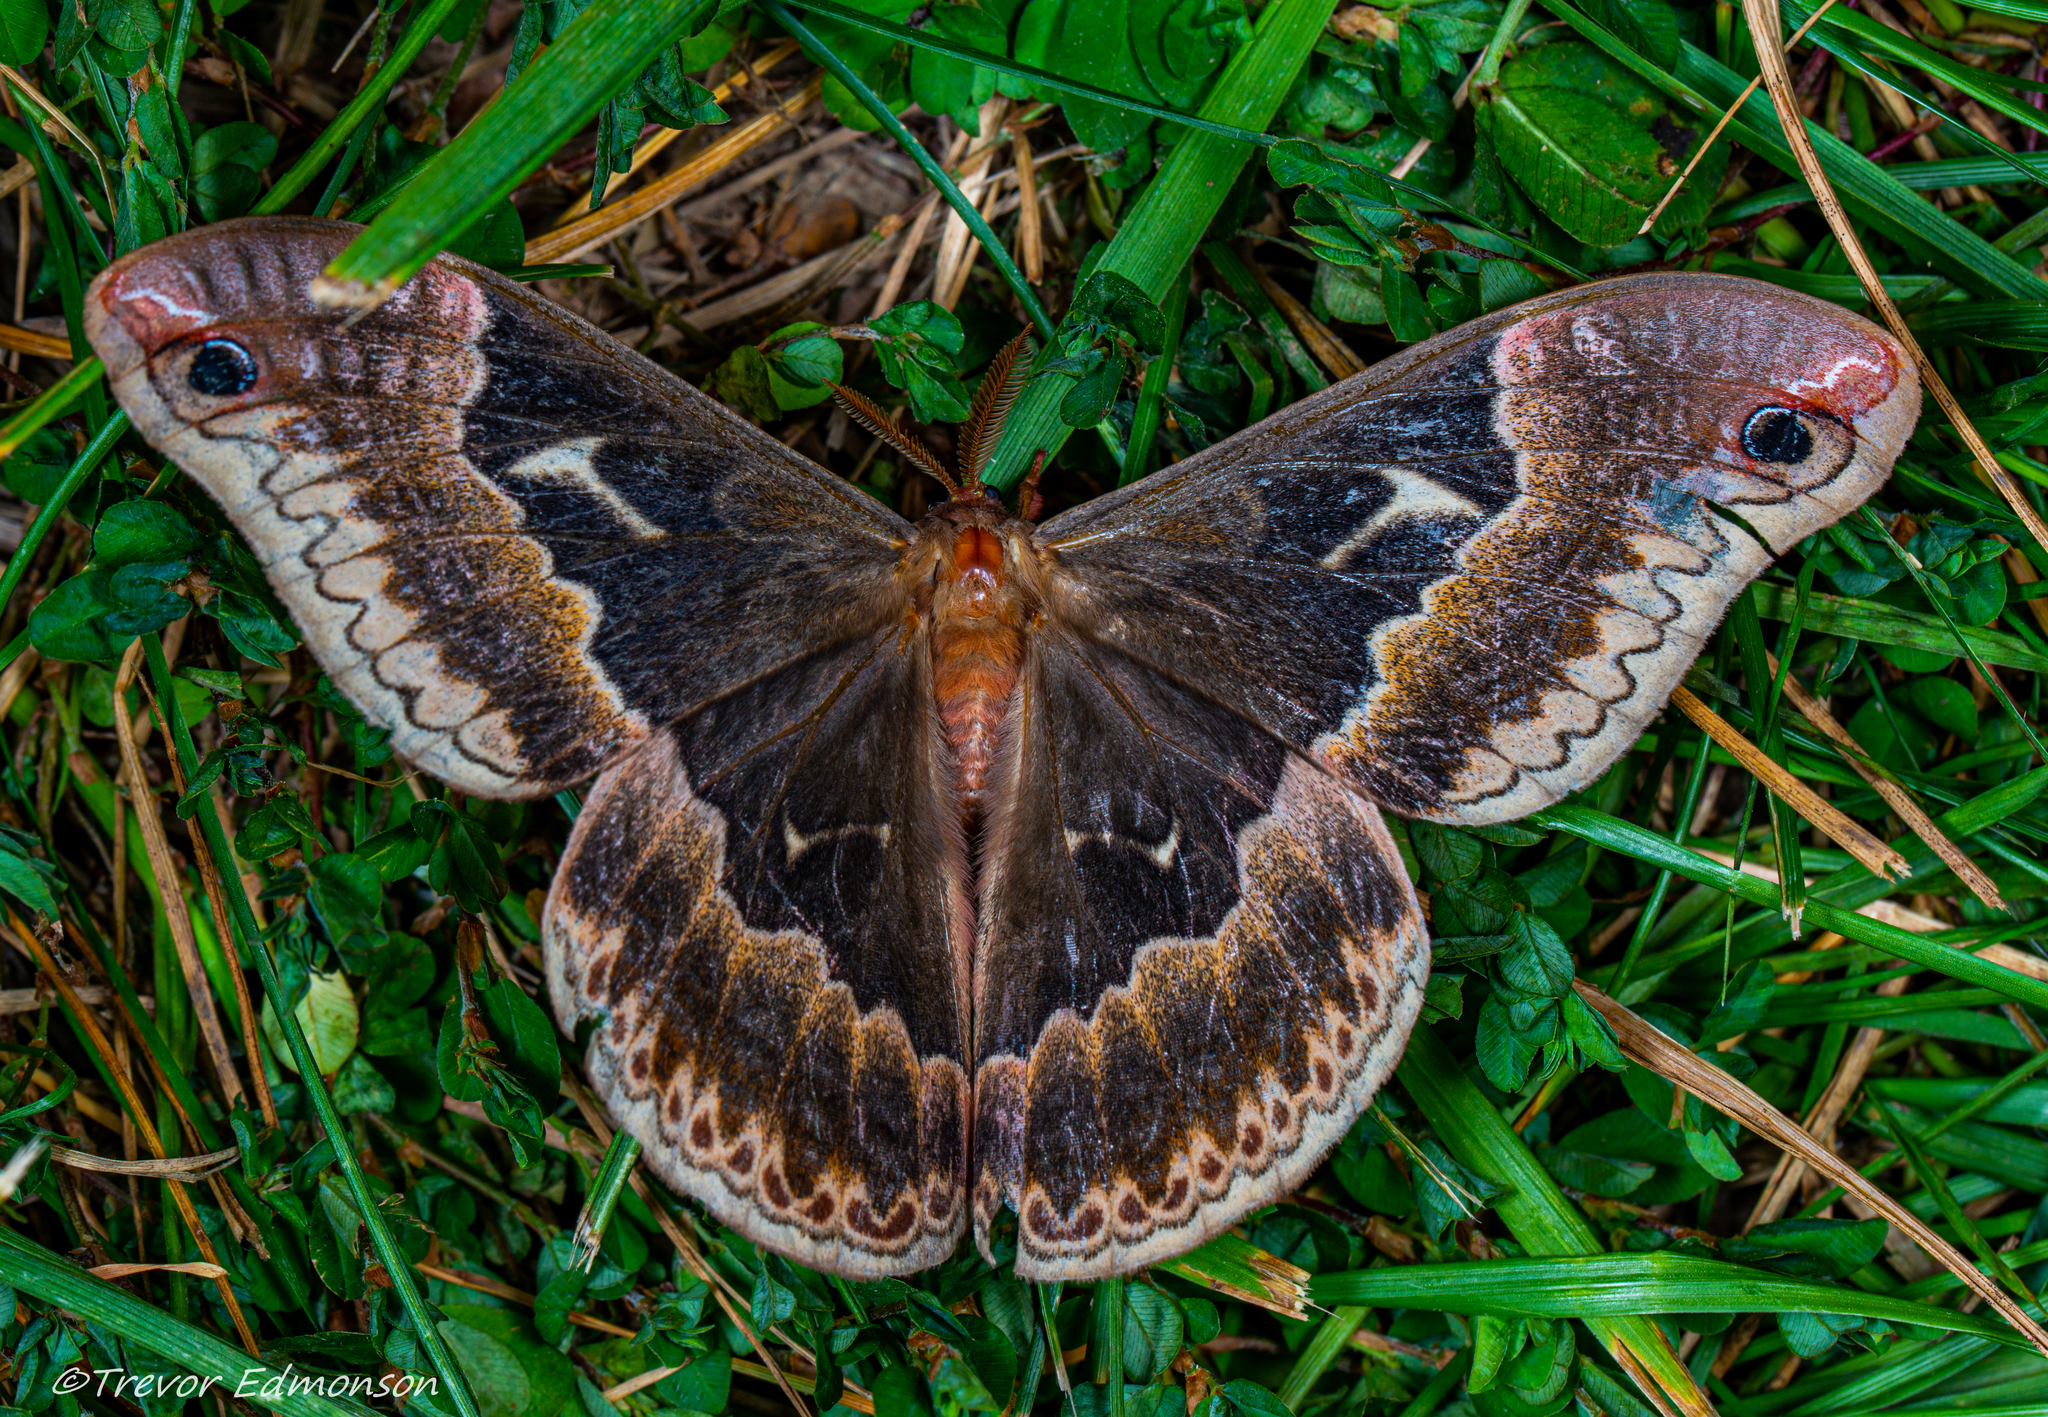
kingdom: Animalia
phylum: Arthropoda
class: Insecta
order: Lepidoptera
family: Saturniidae
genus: Callosamia
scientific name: Callosamia angulifera
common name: Tulip tree silkmoth
